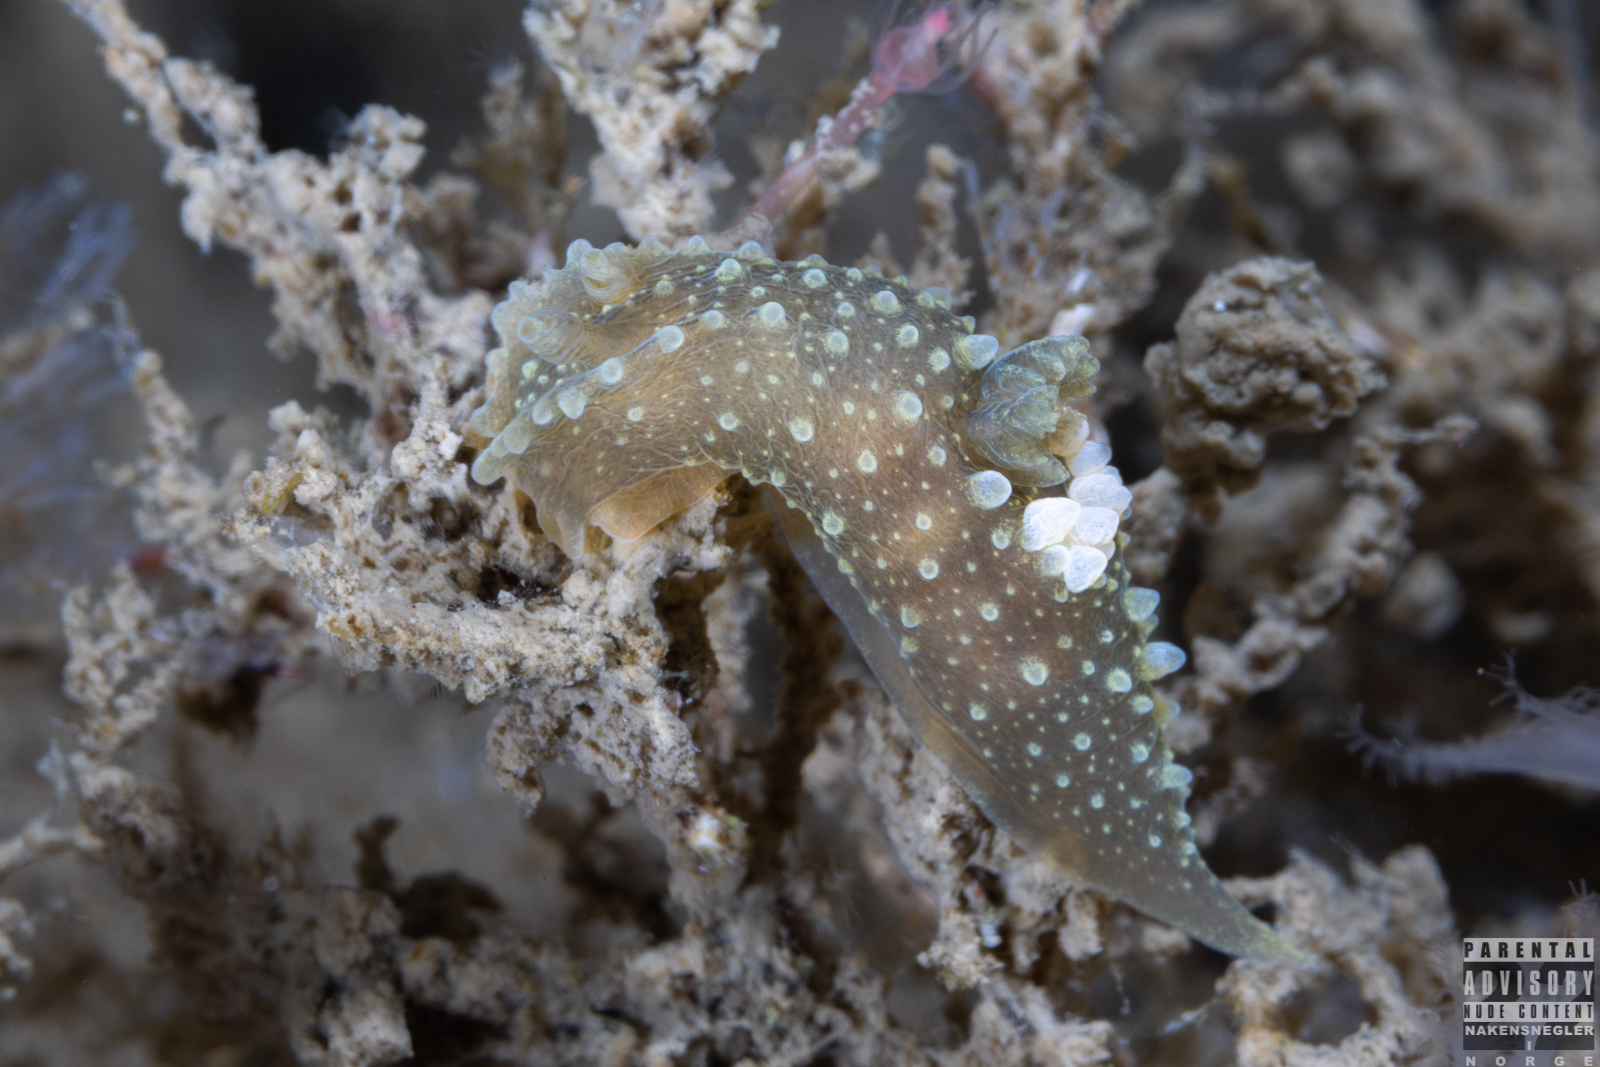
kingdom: Animalia
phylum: Mollusca
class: Gastropoda
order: Nudibranchia
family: Polyceridae
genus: Palio
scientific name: Palio dubia
